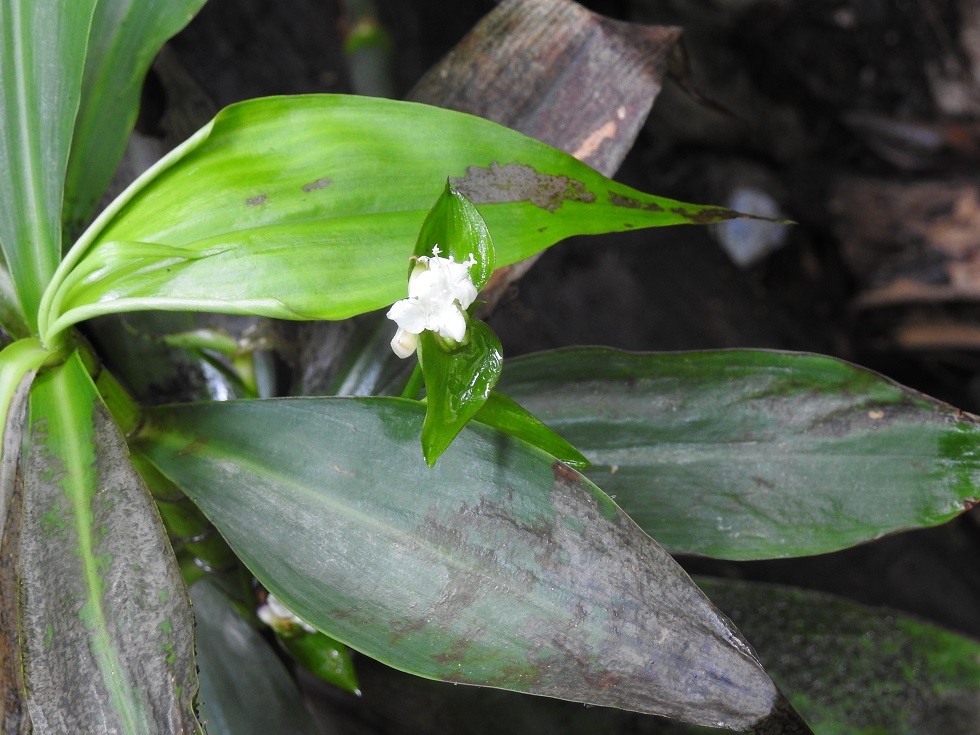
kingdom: Plantae
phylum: Tracheophyta
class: Liliopsida
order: Commelinales
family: Commelinaceae
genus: Tradescantia
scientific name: Tradescantia zanonia
